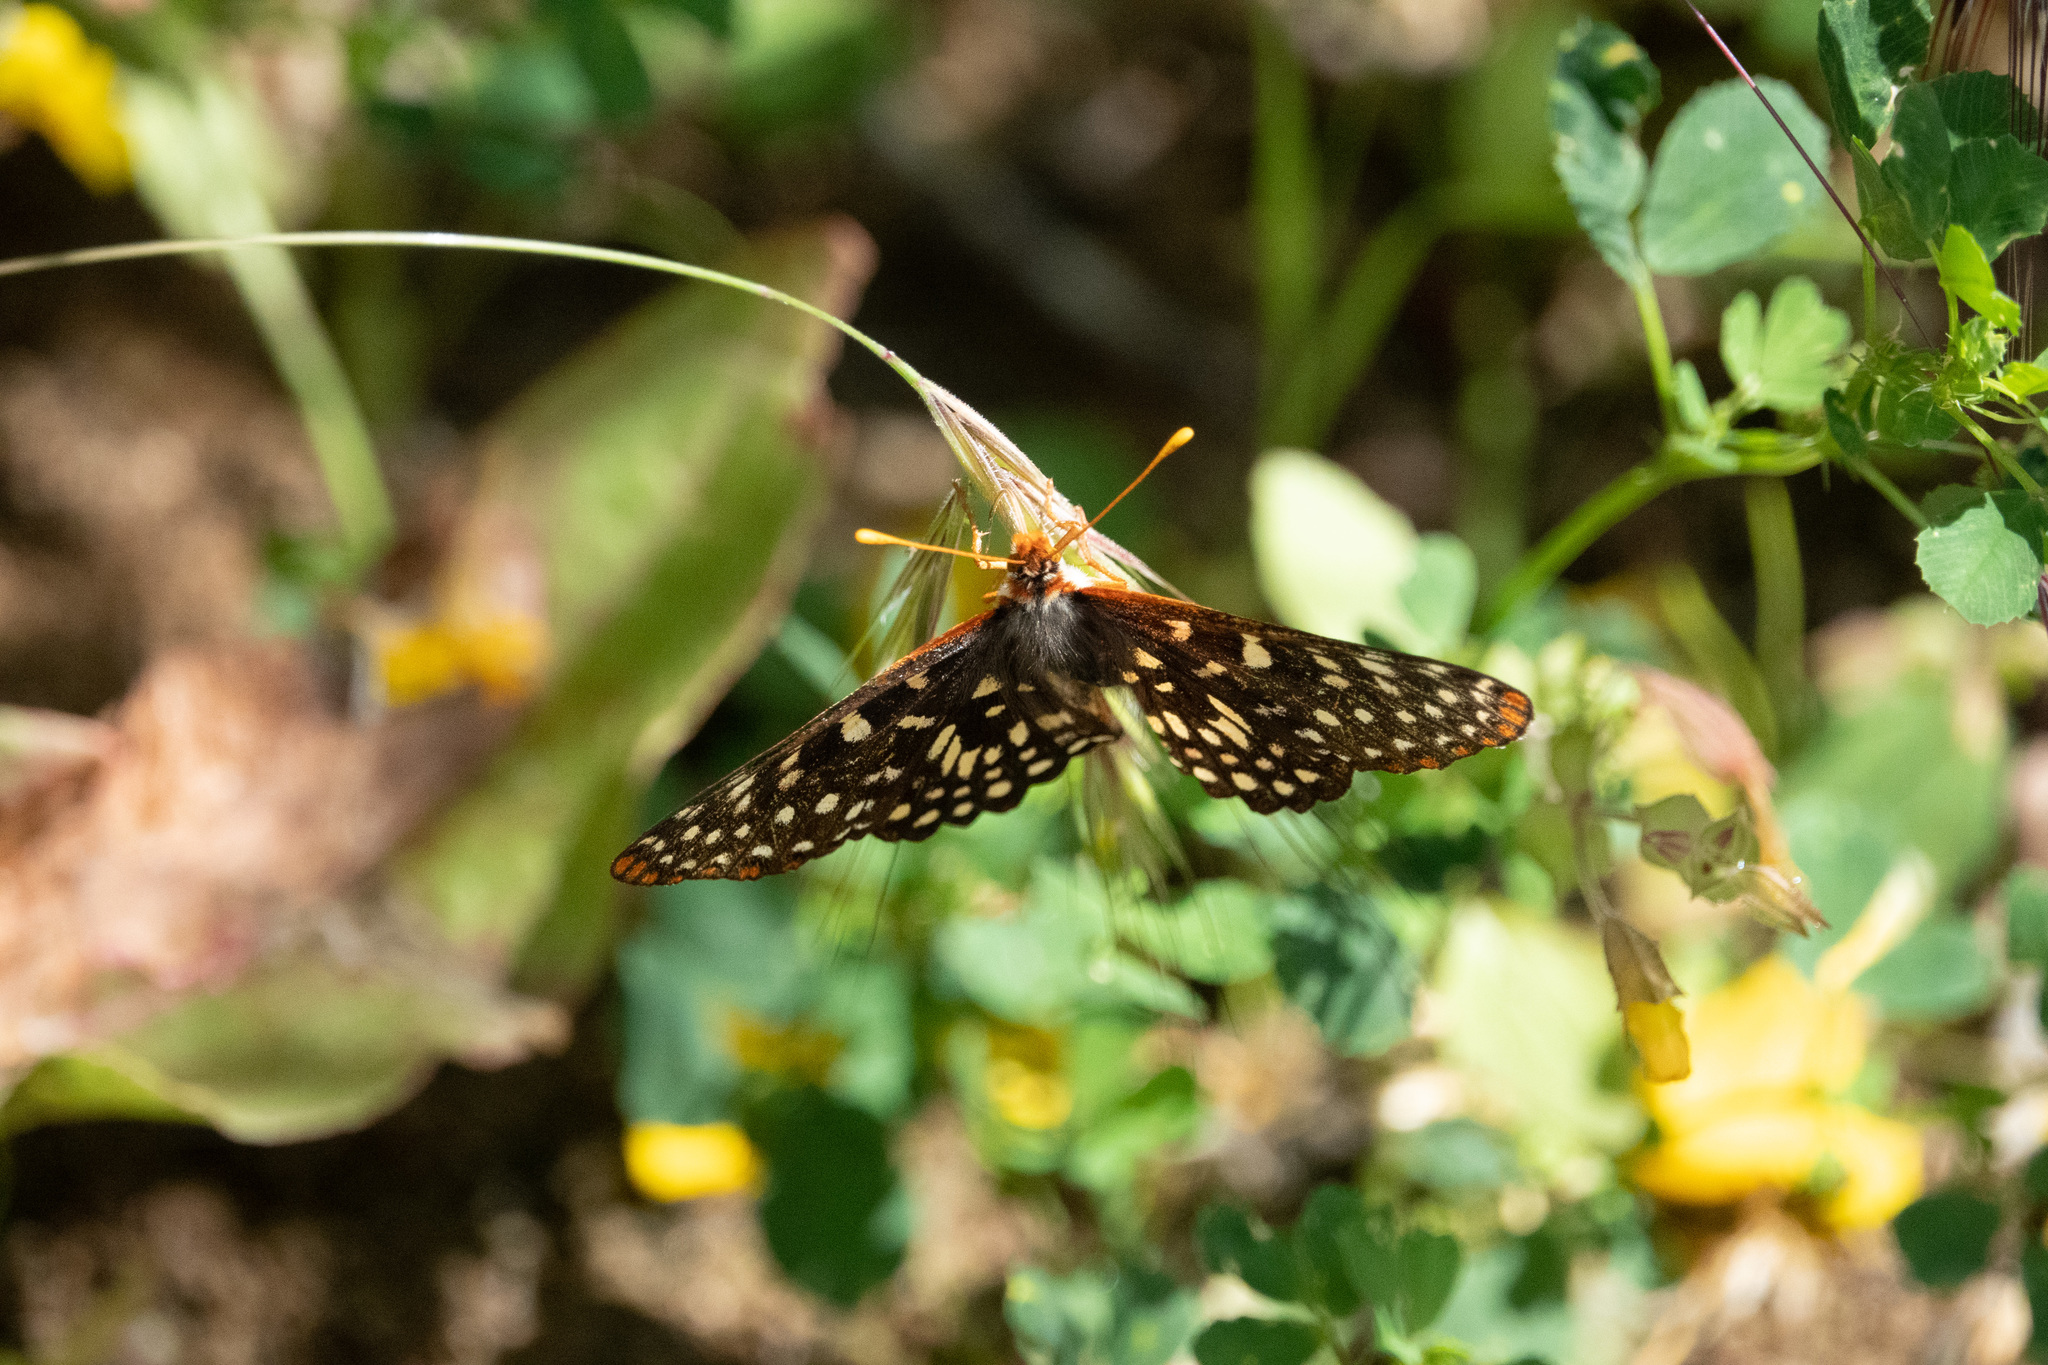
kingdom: Animalia
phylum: Arthropoda
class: Insecta
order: Lepidoptera
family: Nymphalidae
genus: Occidryas
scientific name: Occidryas chalcedona
